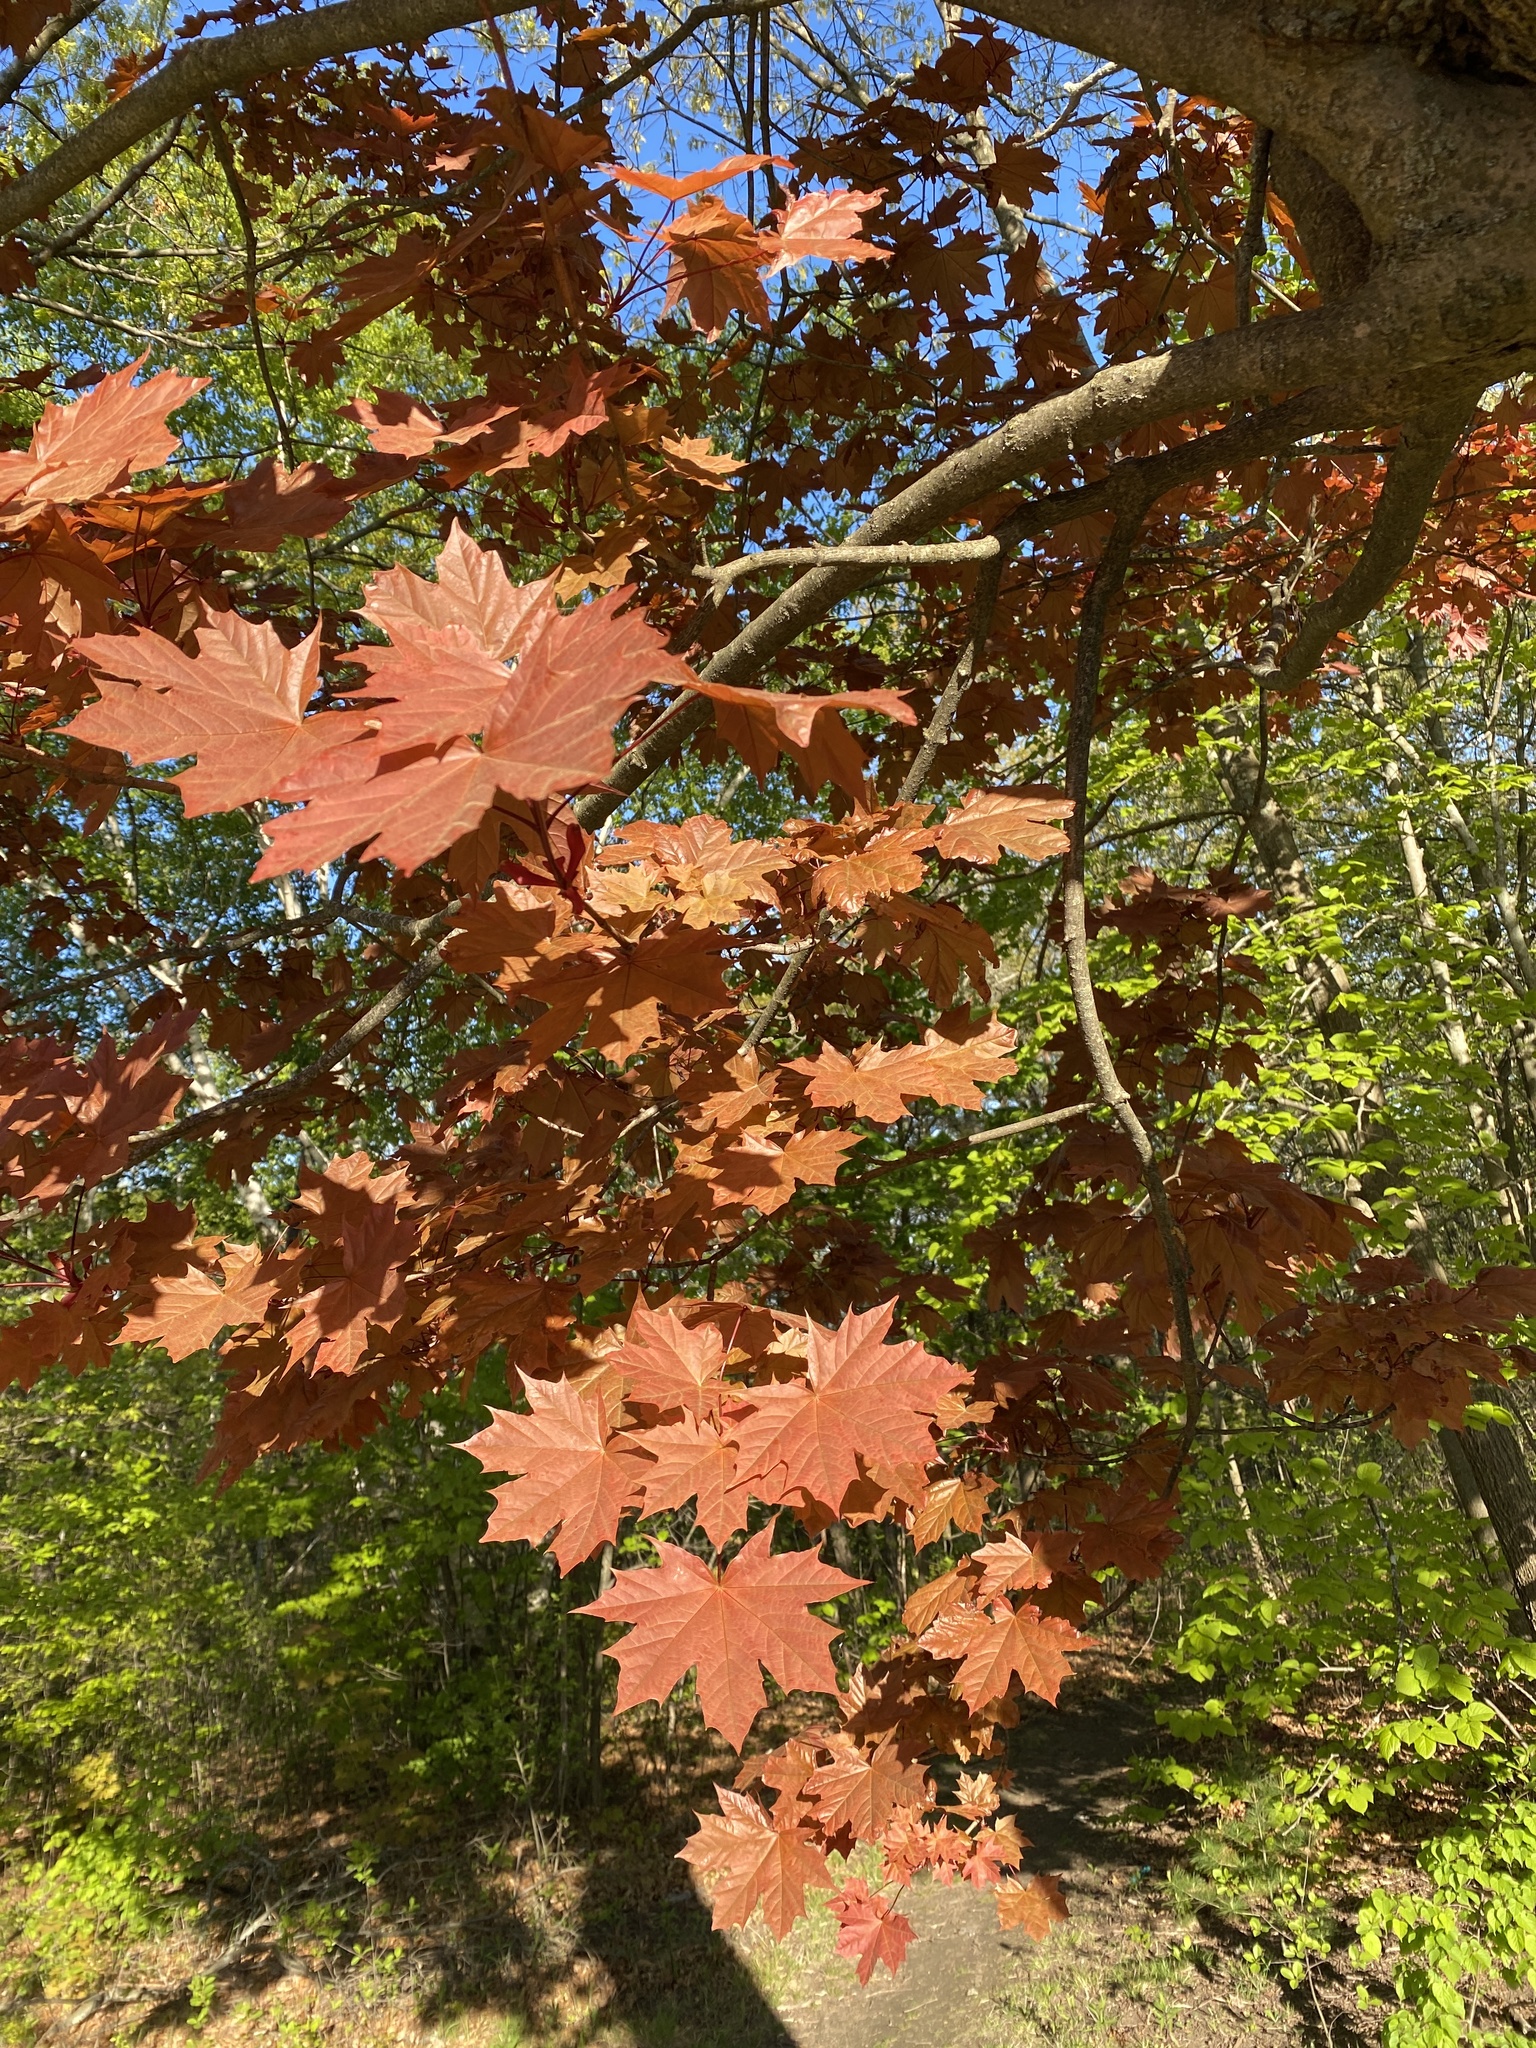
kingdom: Plantae
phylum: Tracheophyta
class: Magnoliopsida
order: Sapindales
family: Sapindaceae
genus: Acer
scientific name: Acer platanoides
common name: Norway maple
